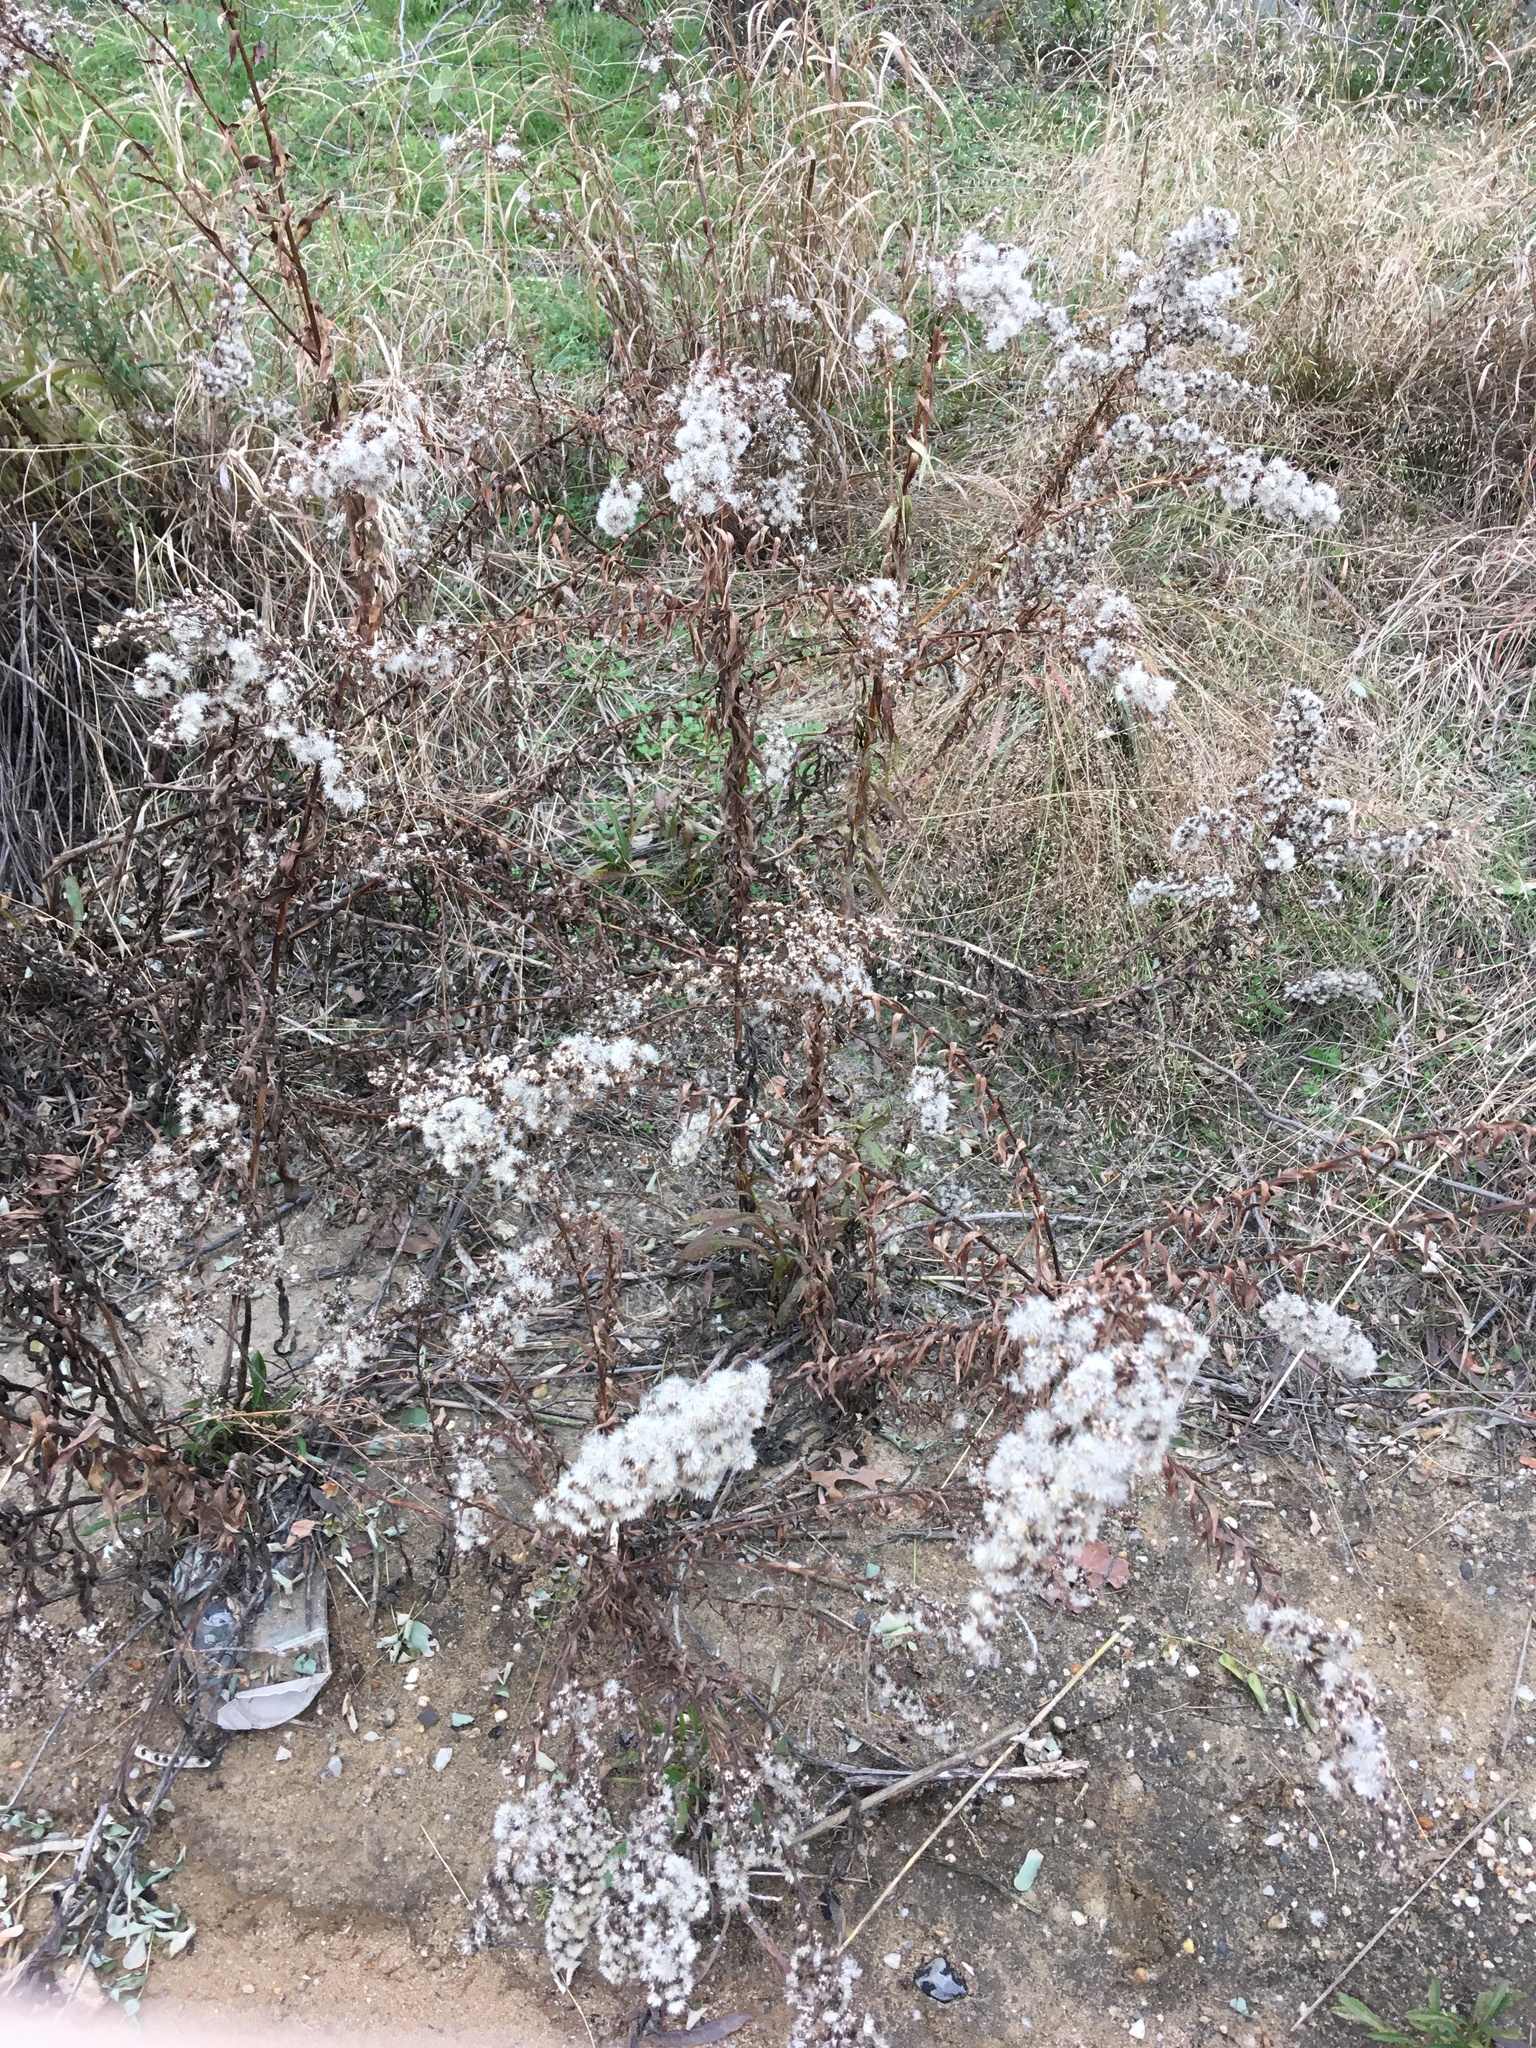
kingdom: Plantae
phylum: Tracheophyta
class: Magnoliopsida
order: Asterales
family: Asteraceae
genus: Solidago
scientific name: Solidago sempervirens
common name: Salt-marsh goldenrod
